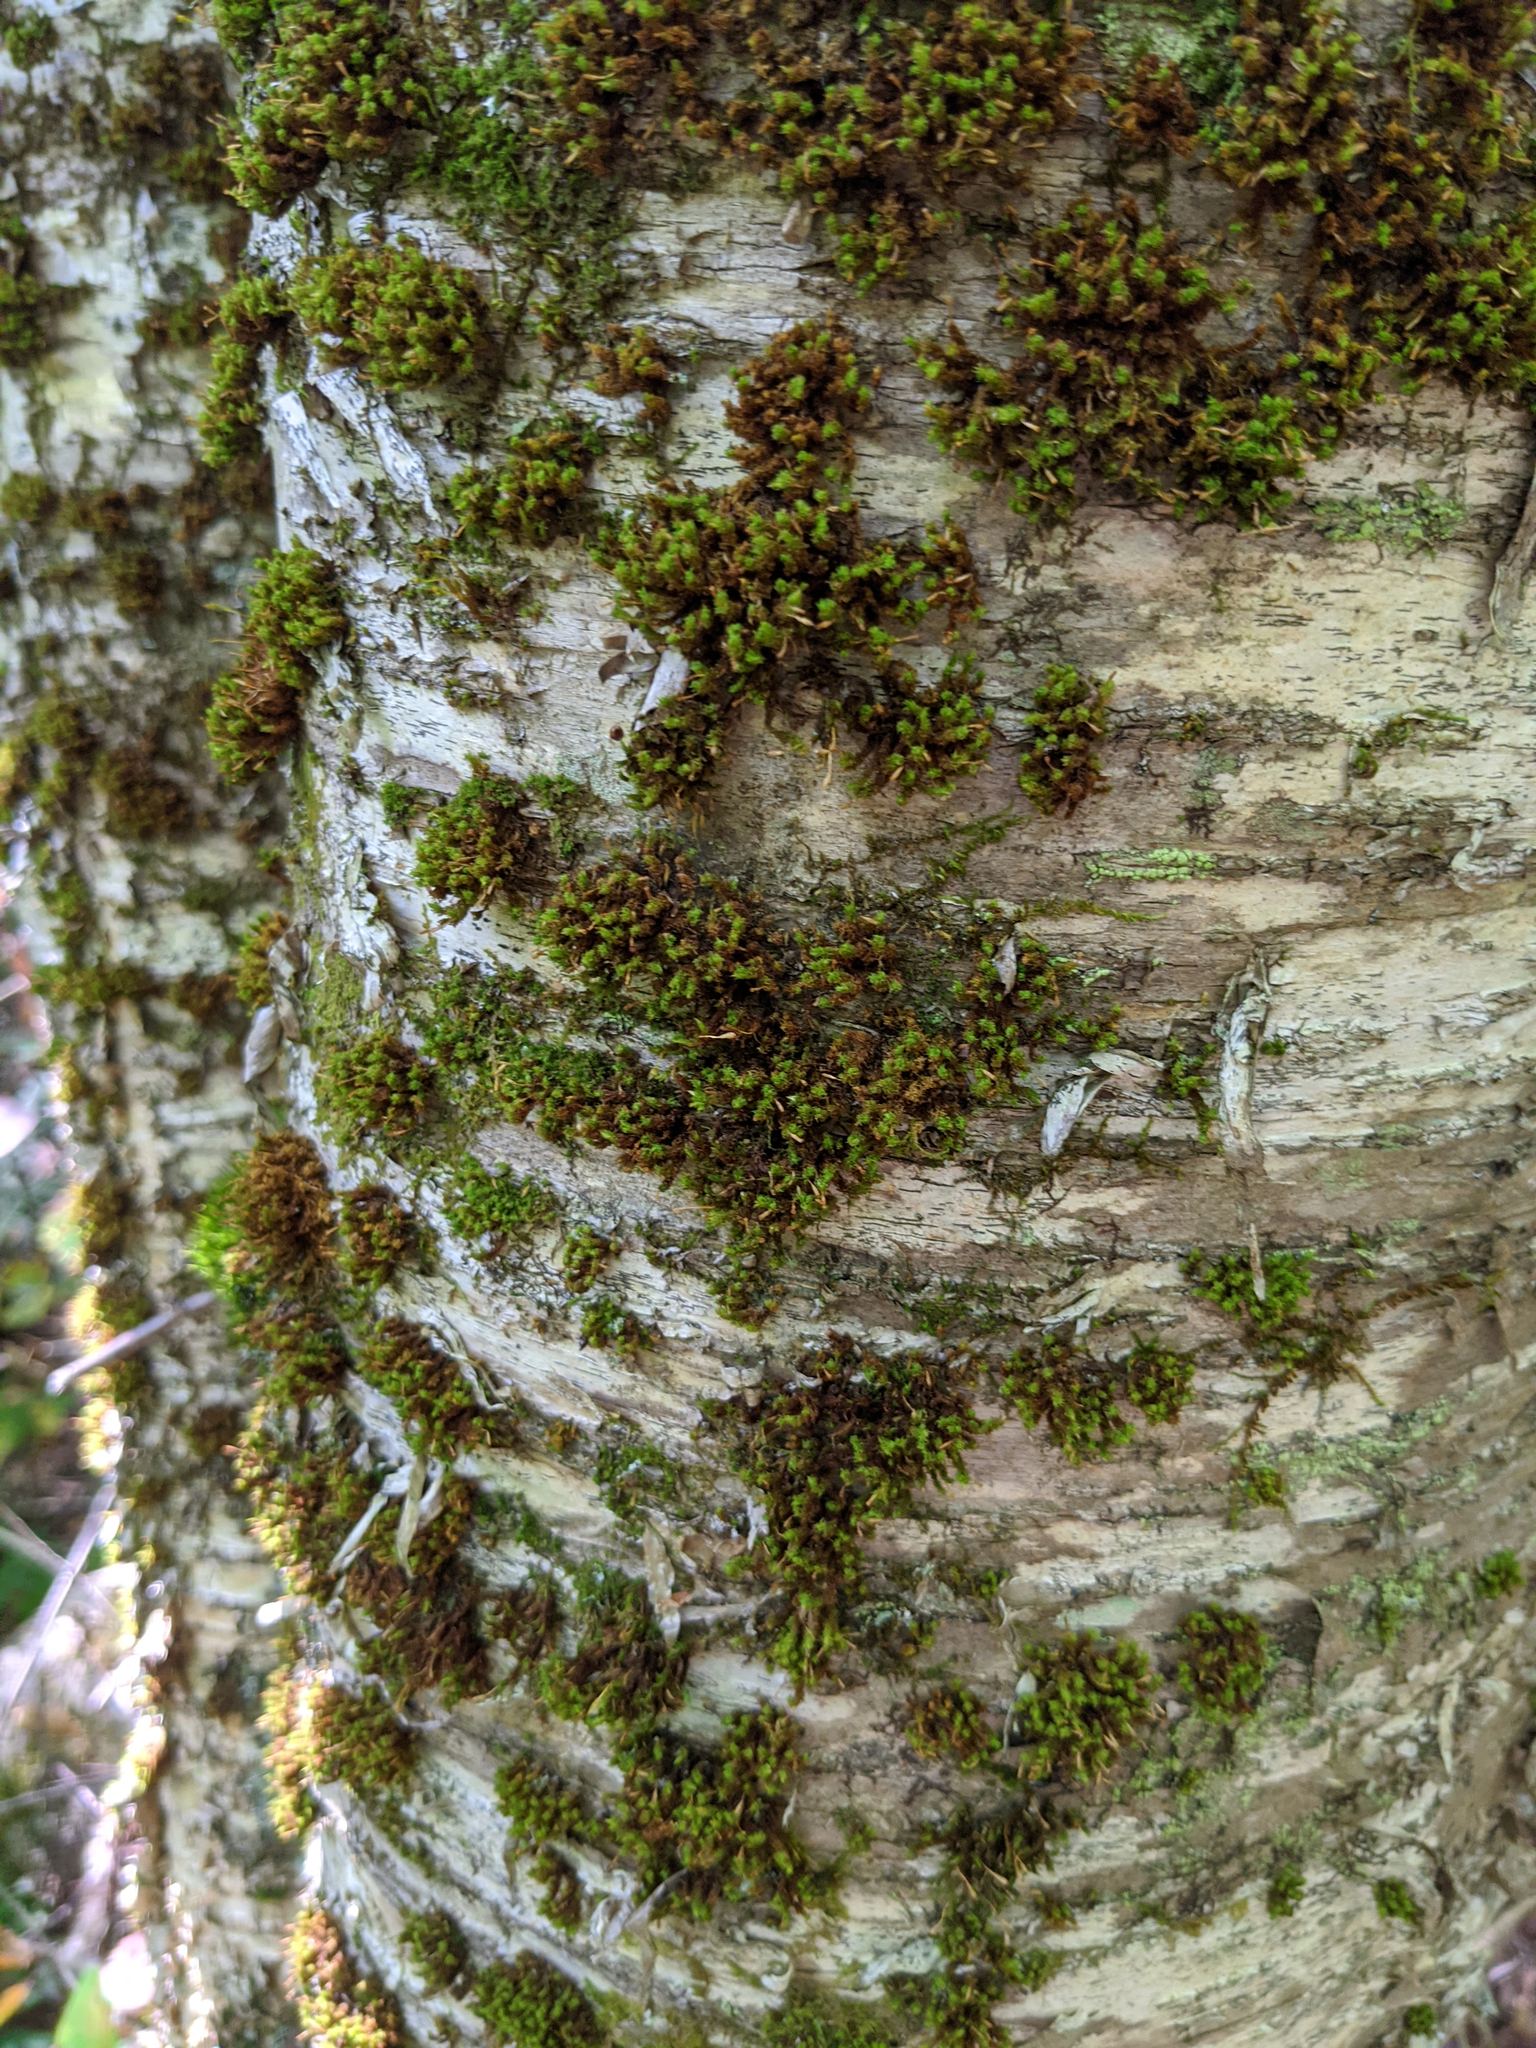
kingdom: Plantae
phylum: Bryophyta
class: Bryopsida
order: Orthotrichales
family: Orthotrichaceae
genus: Ulota
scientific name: Ulota crispa
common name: Crisped pincushion moss
